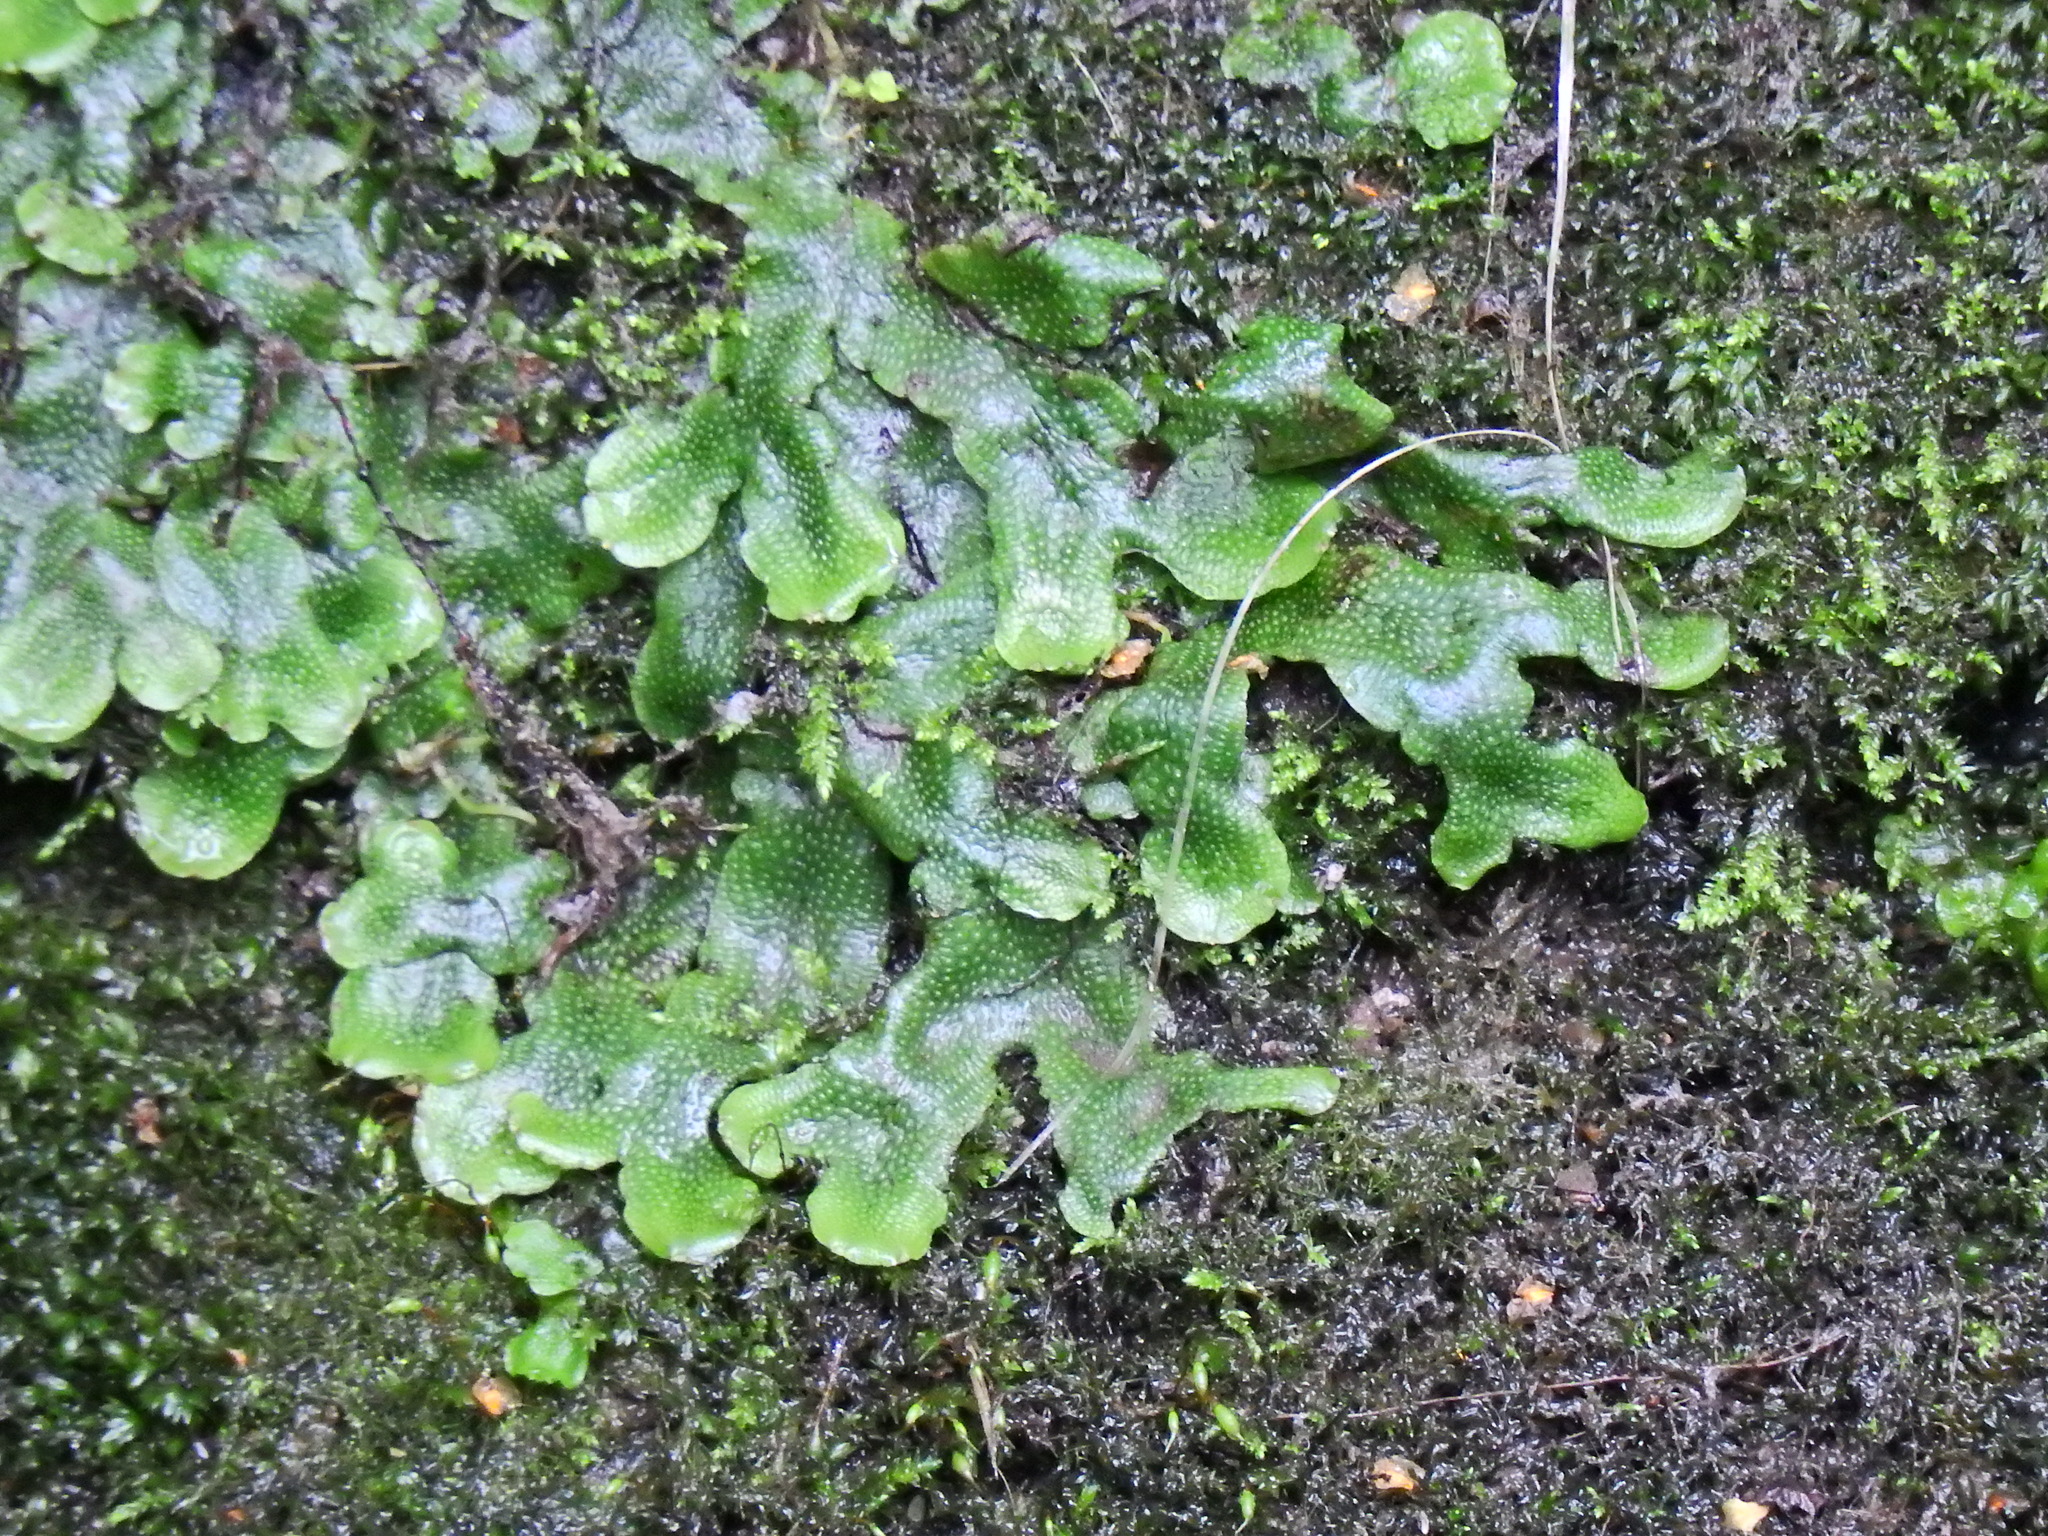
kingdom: Plantae
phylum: Marchantiophyta
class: Marchantiopsida
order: Marchantiales
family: Conocephalaceae
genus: Conocephalum
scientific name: Conocephalum conicum
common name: Great scented liverwort
